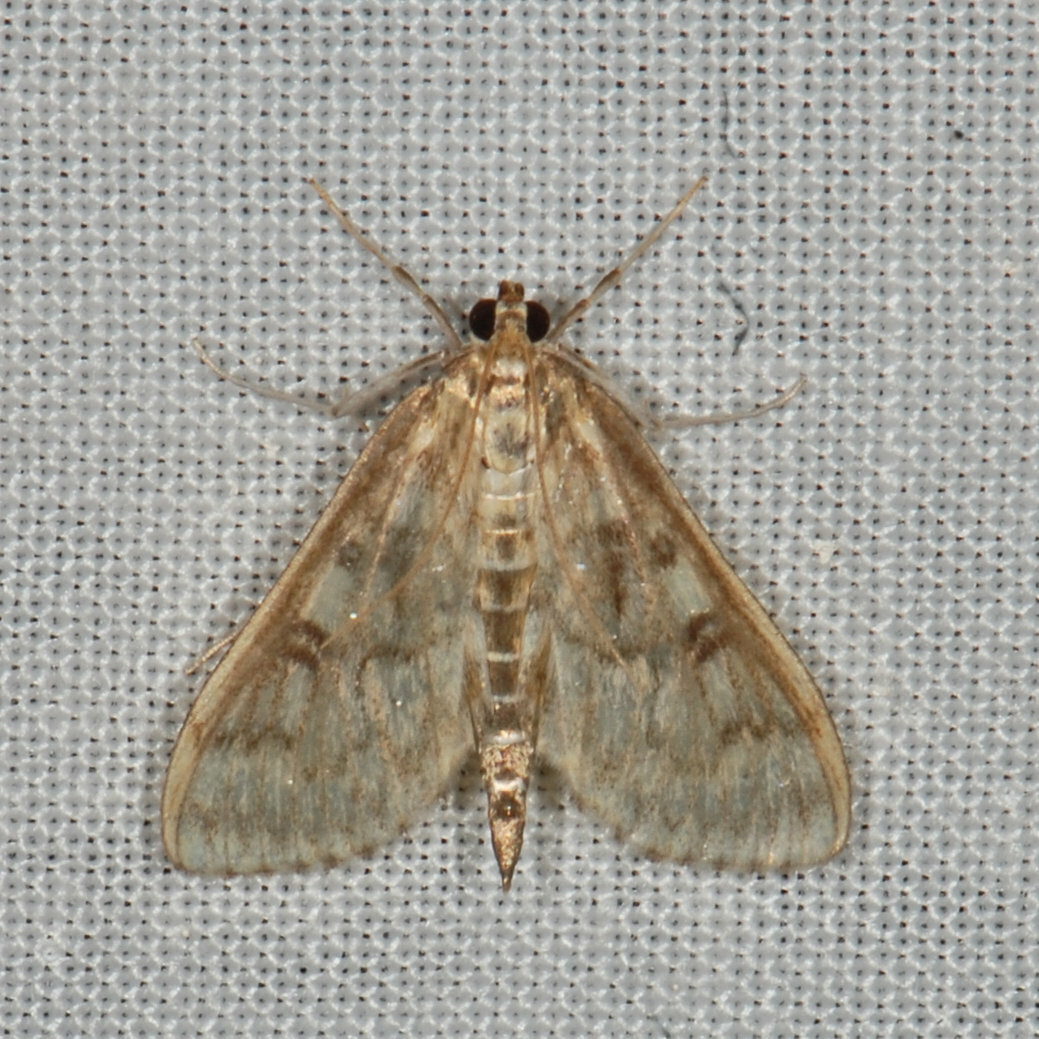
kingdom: Animalia
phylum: Arthropoda
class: Insecta
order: Lepidoptera
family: Crambidae
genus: Herpetogramma
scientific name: Herpetogramma aquilonalis
